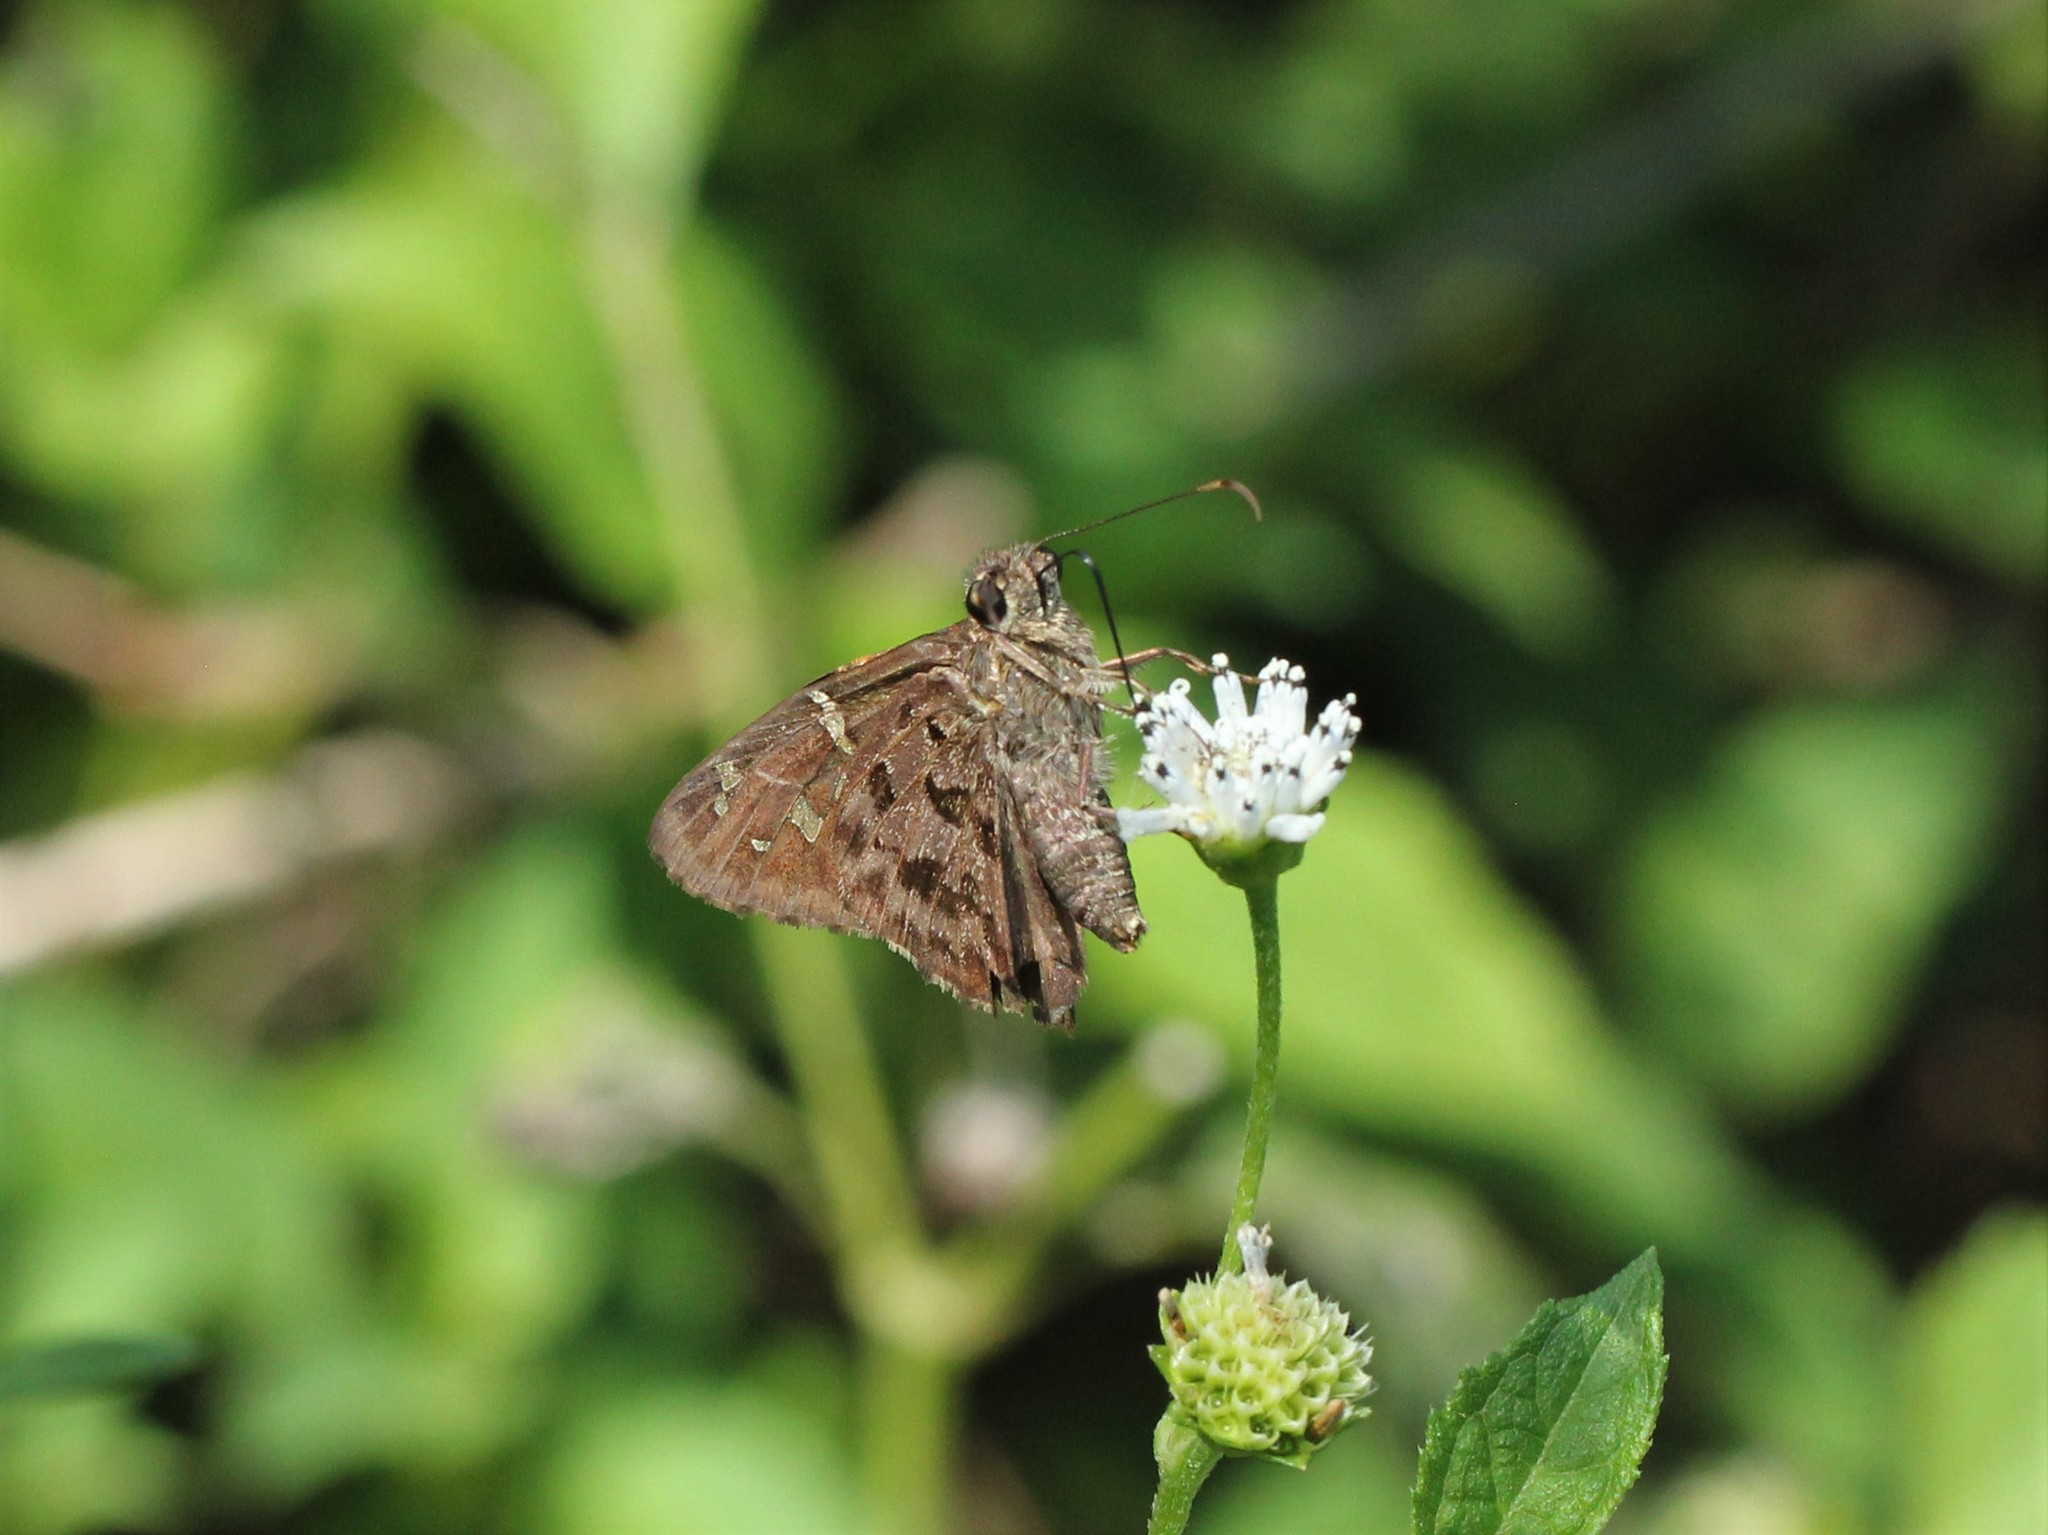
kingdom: Animalia
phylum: Arthropoda
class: Insecta
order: Lepidoptera
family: Hesperiidae
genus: Thorybes
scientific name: Thorybes
